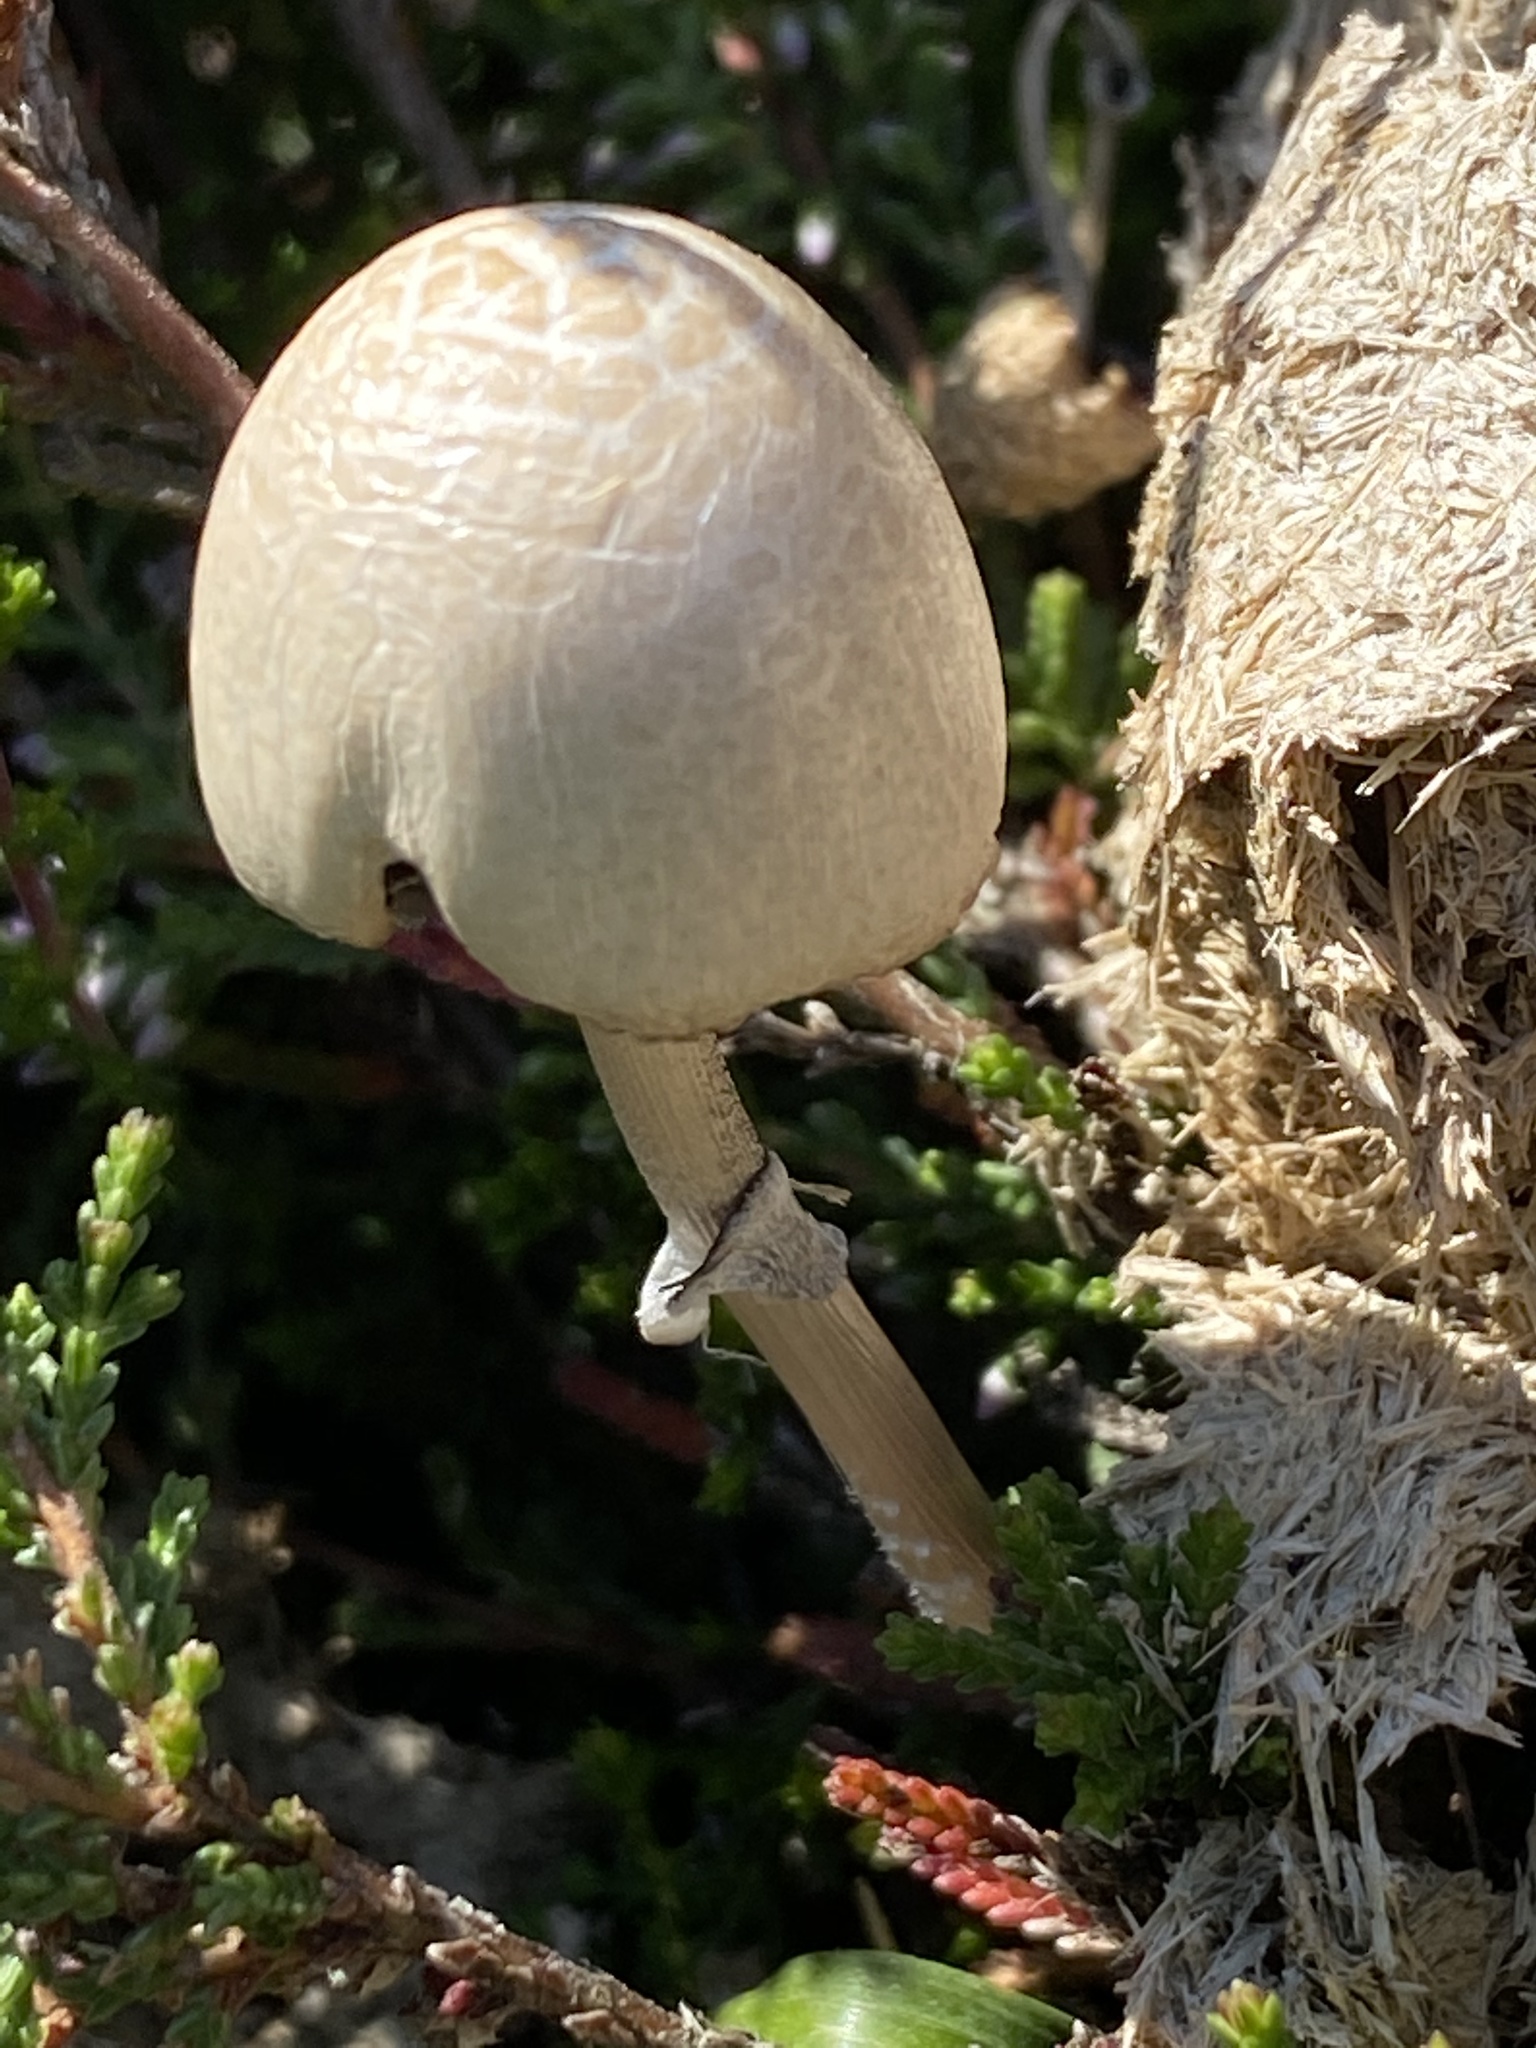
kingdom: Fungi
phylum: Basidiomycota
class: Agaricomycetes
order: Agaricales
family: Bolbitiaceae
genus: Panaeolus
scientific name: Panaeolus semiovatus
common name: Shiny mottlegill
